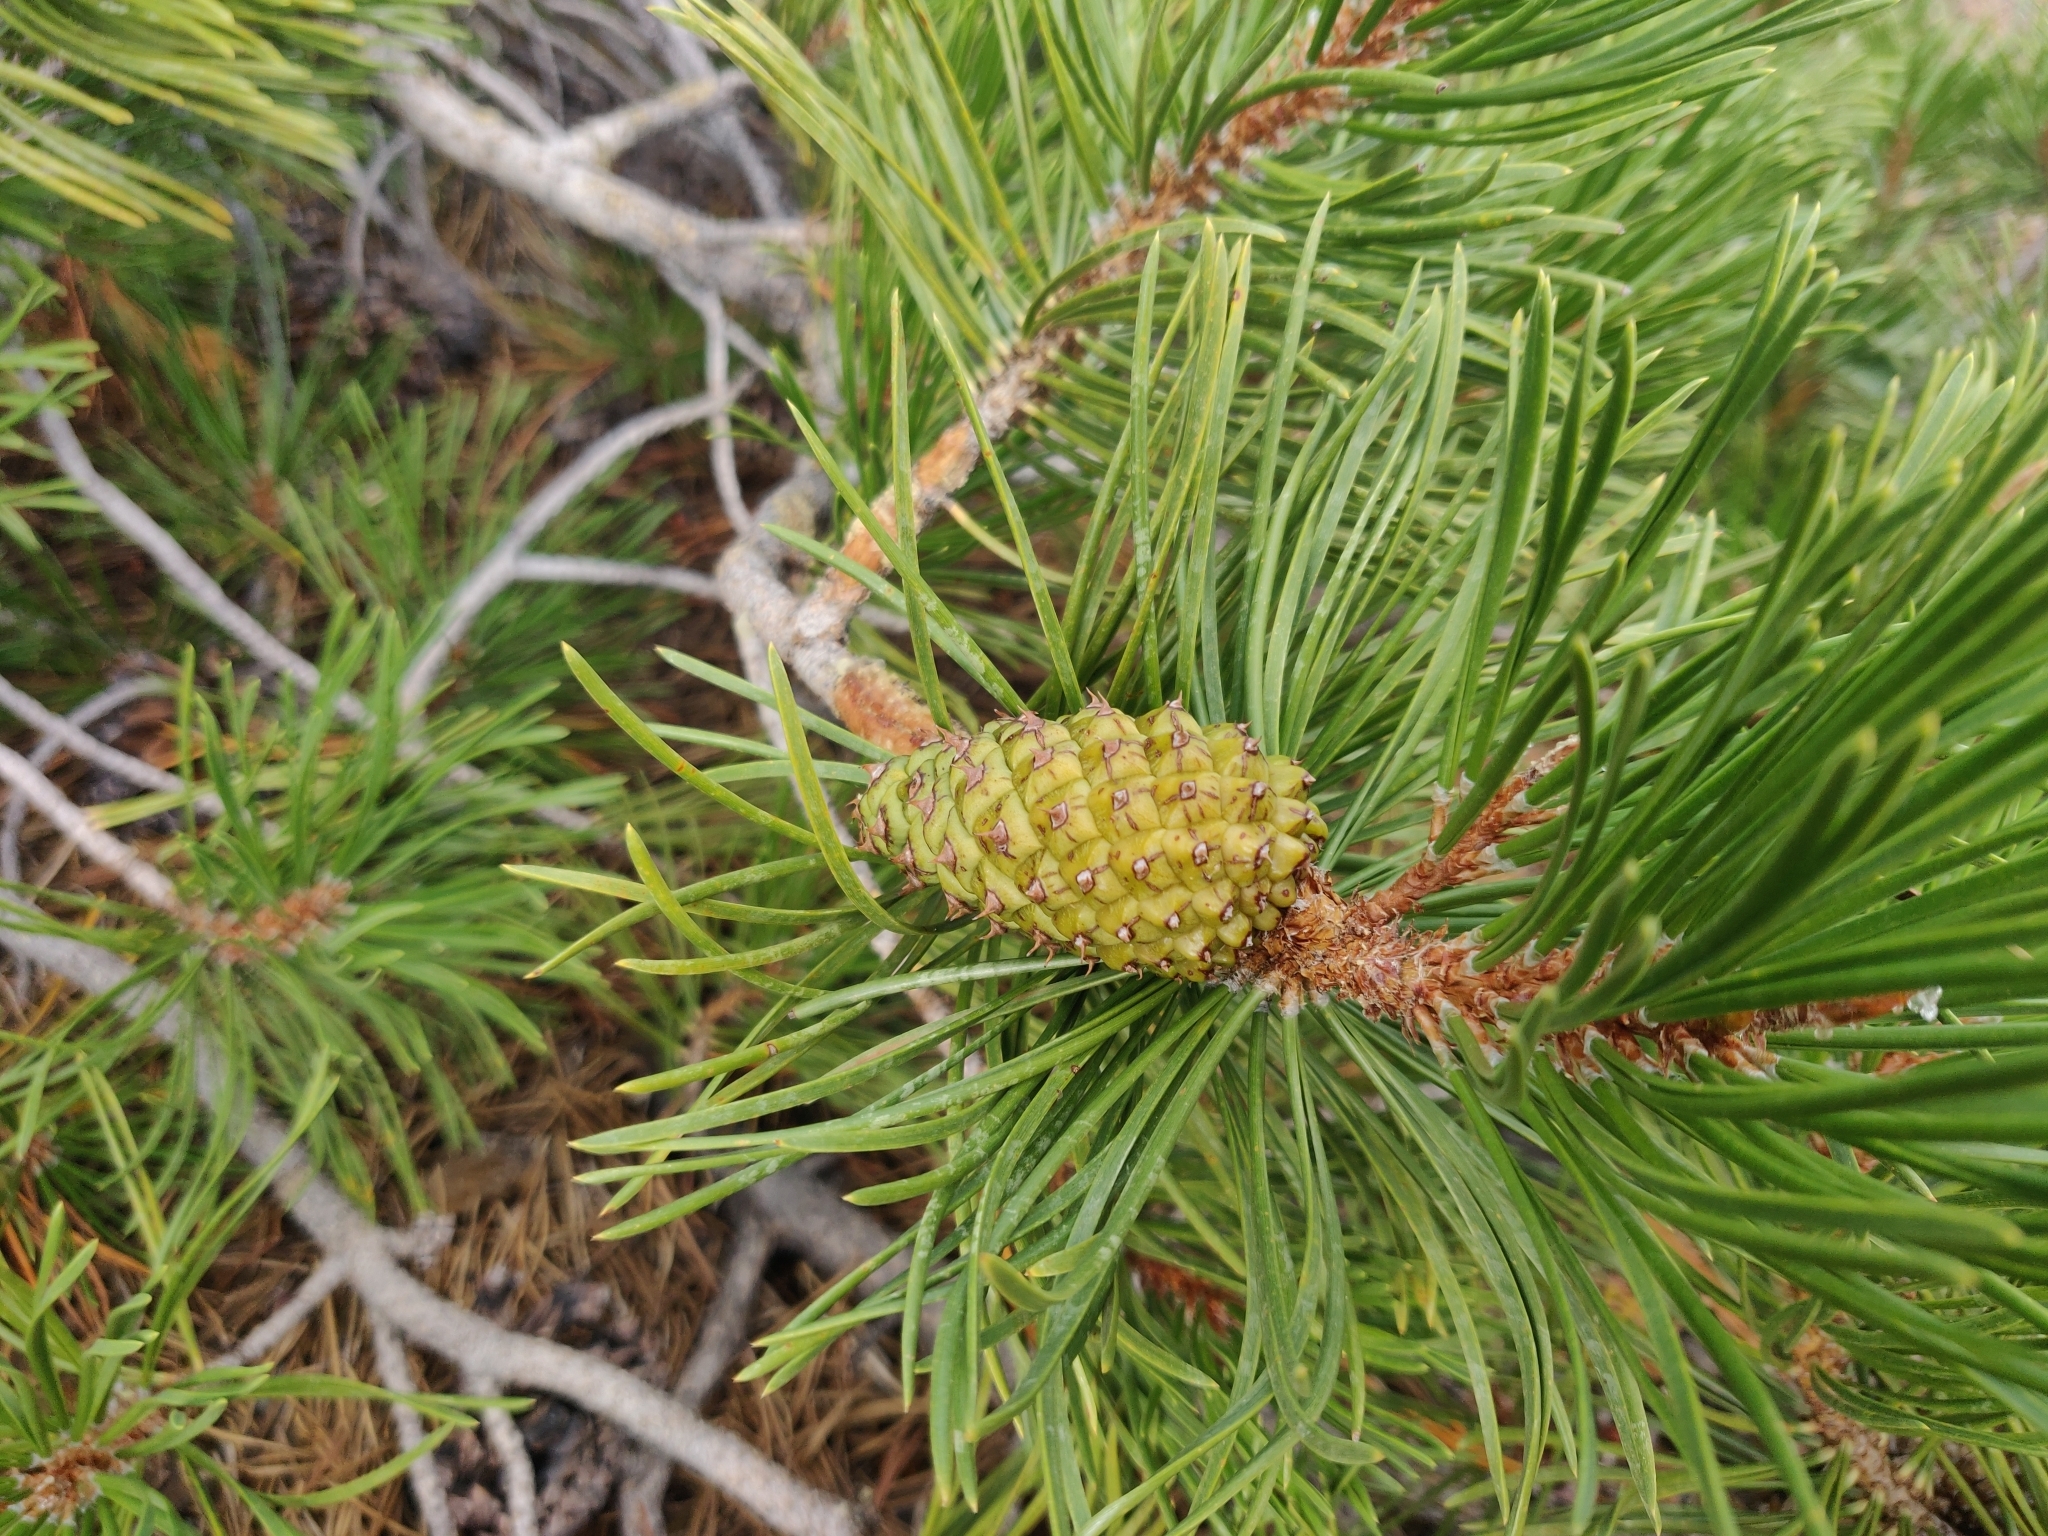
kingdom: Plantae
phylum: Tracheophyta
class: Pinopsida
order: Pinales
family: Pinaceae
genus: Pinus
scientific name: Pinus contorta
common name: Lodgepole pine
